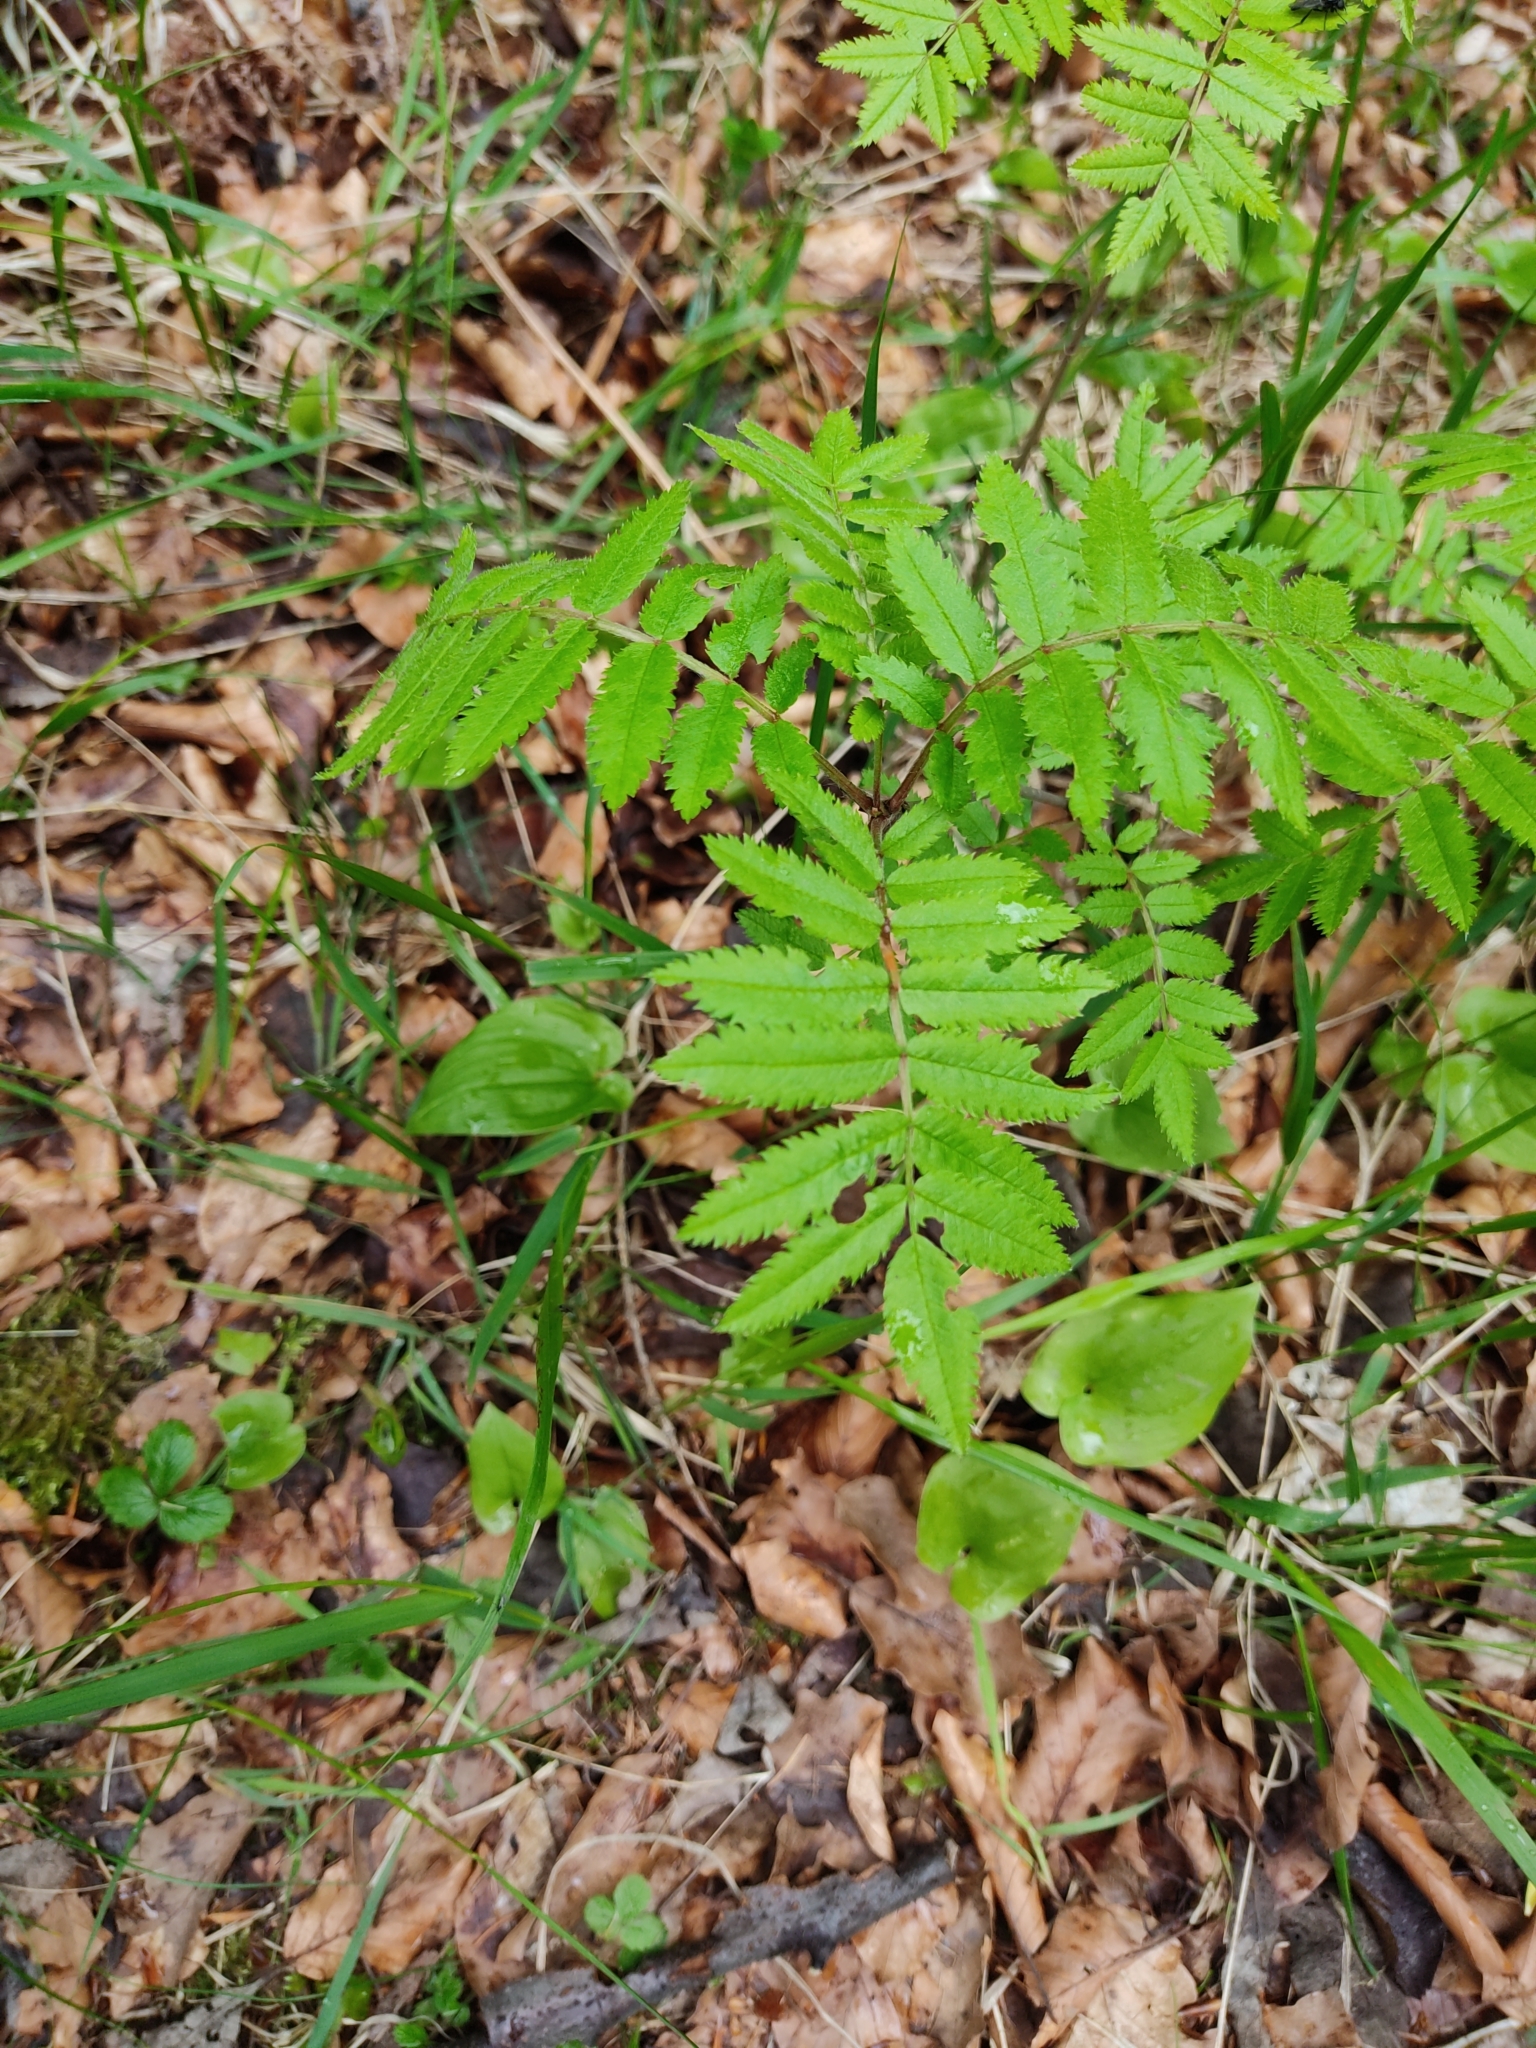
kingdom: Plantae
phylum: Tracheophyta
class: Magnoliopsida
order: Rosales
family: Rosaceae
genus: Sorbus
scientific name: Sorbus aucuparia
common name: Rowan
